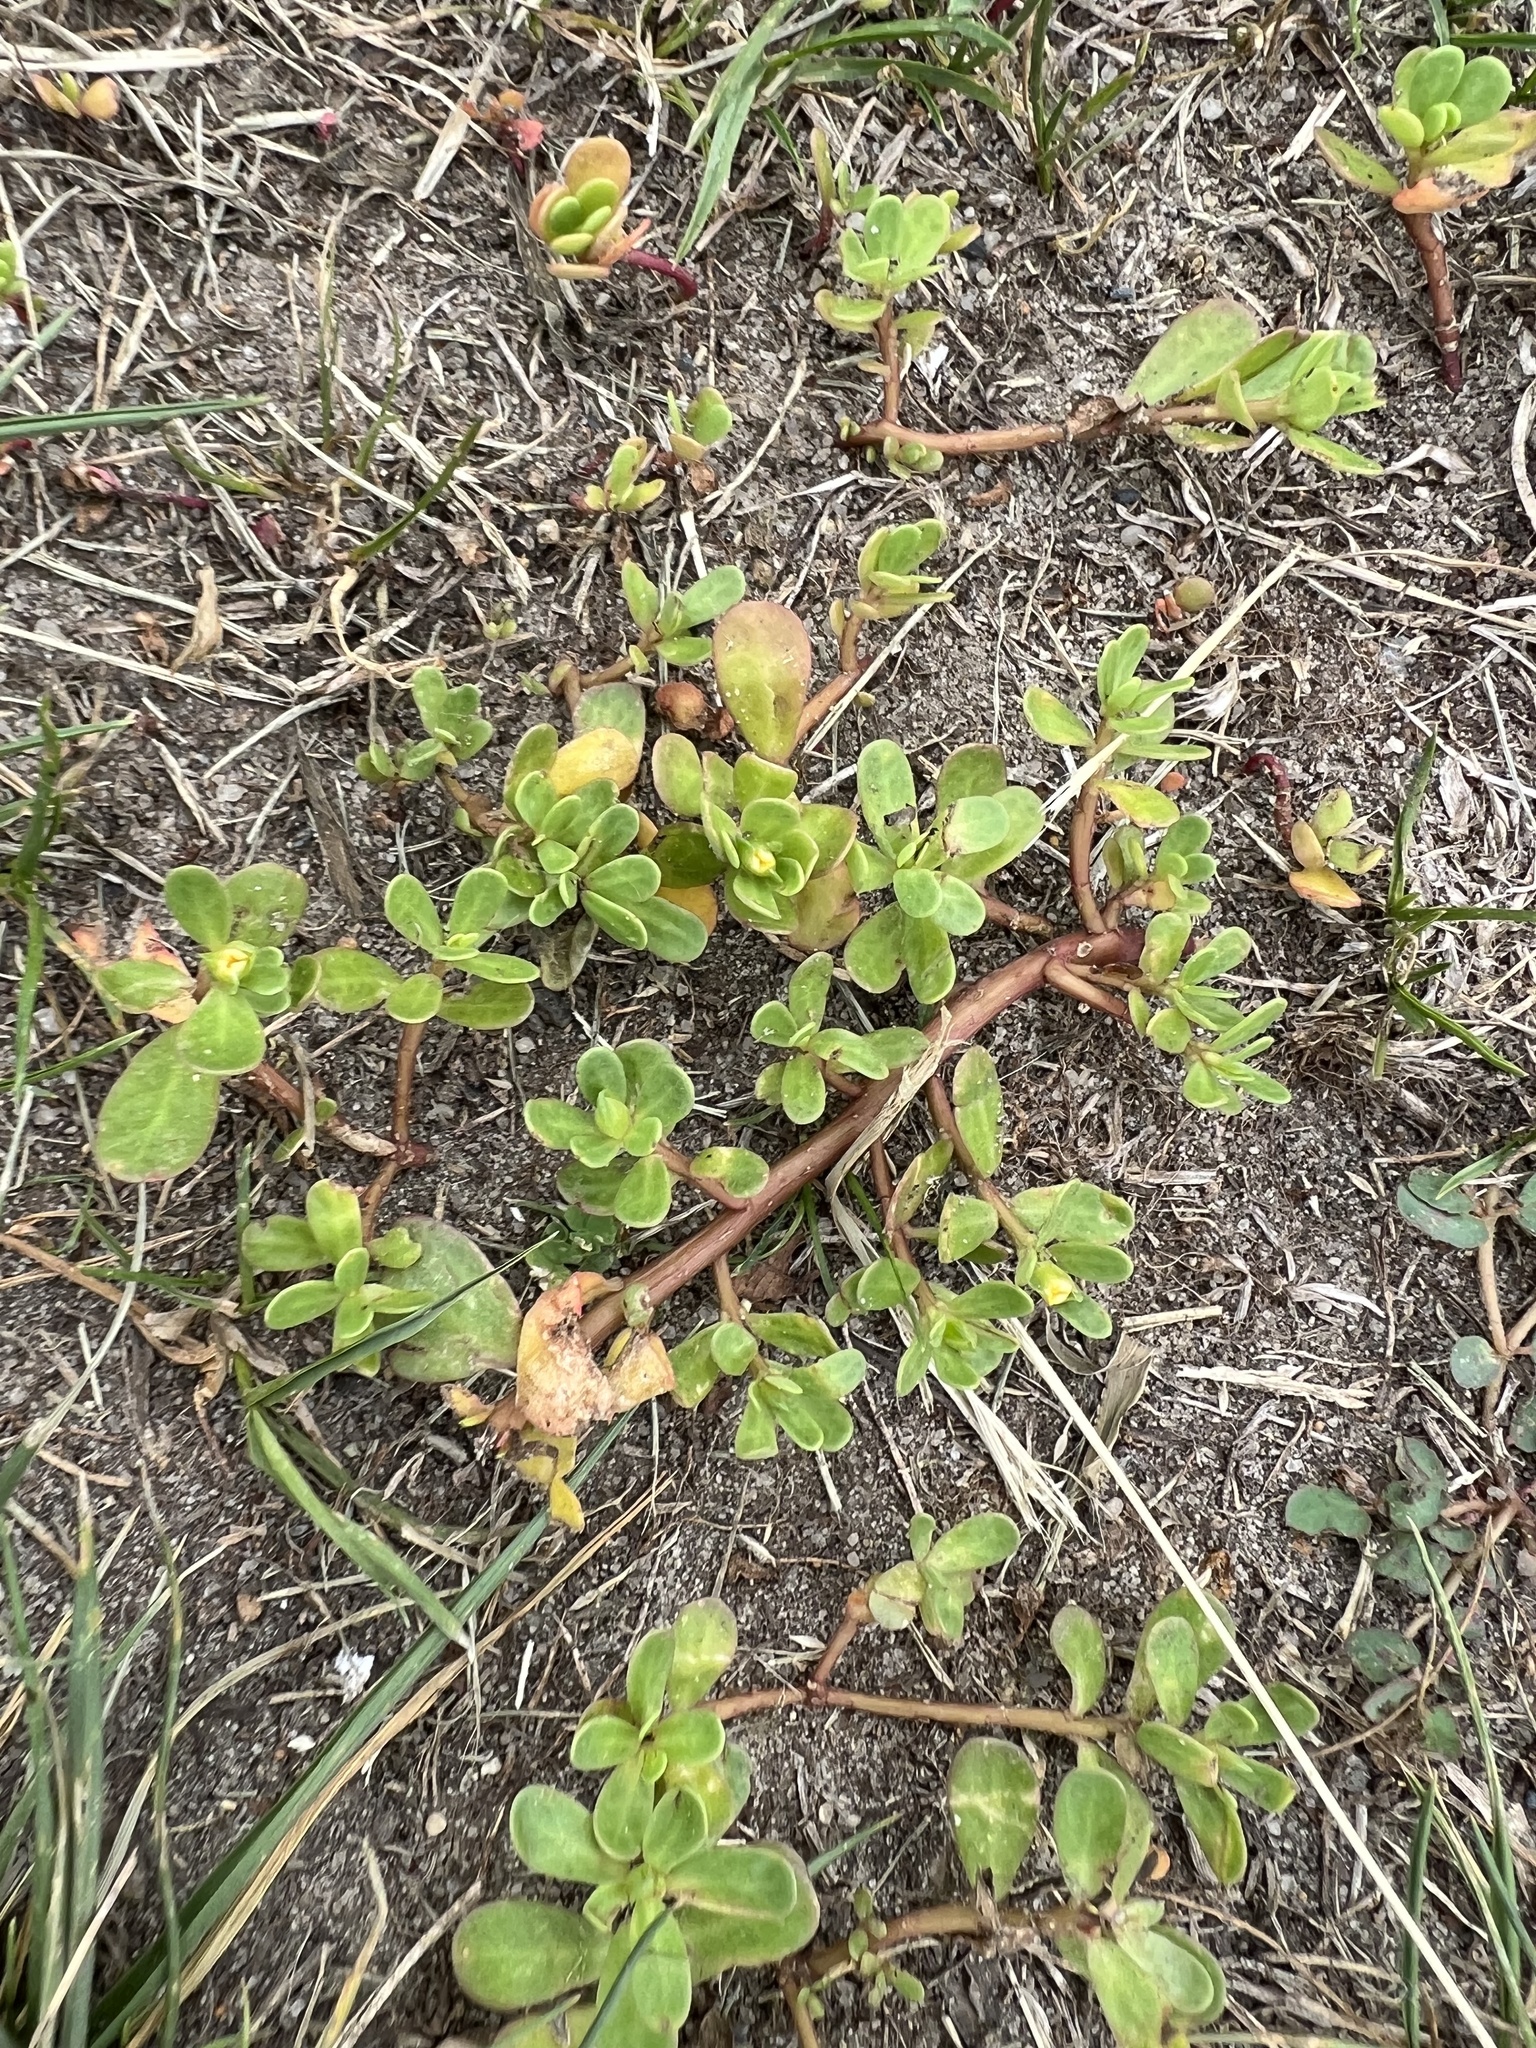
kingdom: Plantae
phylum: Tracheophyta
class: Magnoliopsida
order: Caryophyllales
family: Portulacaceae
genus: Portulaca
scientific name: Portulaca oleracea
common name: Common purslane
